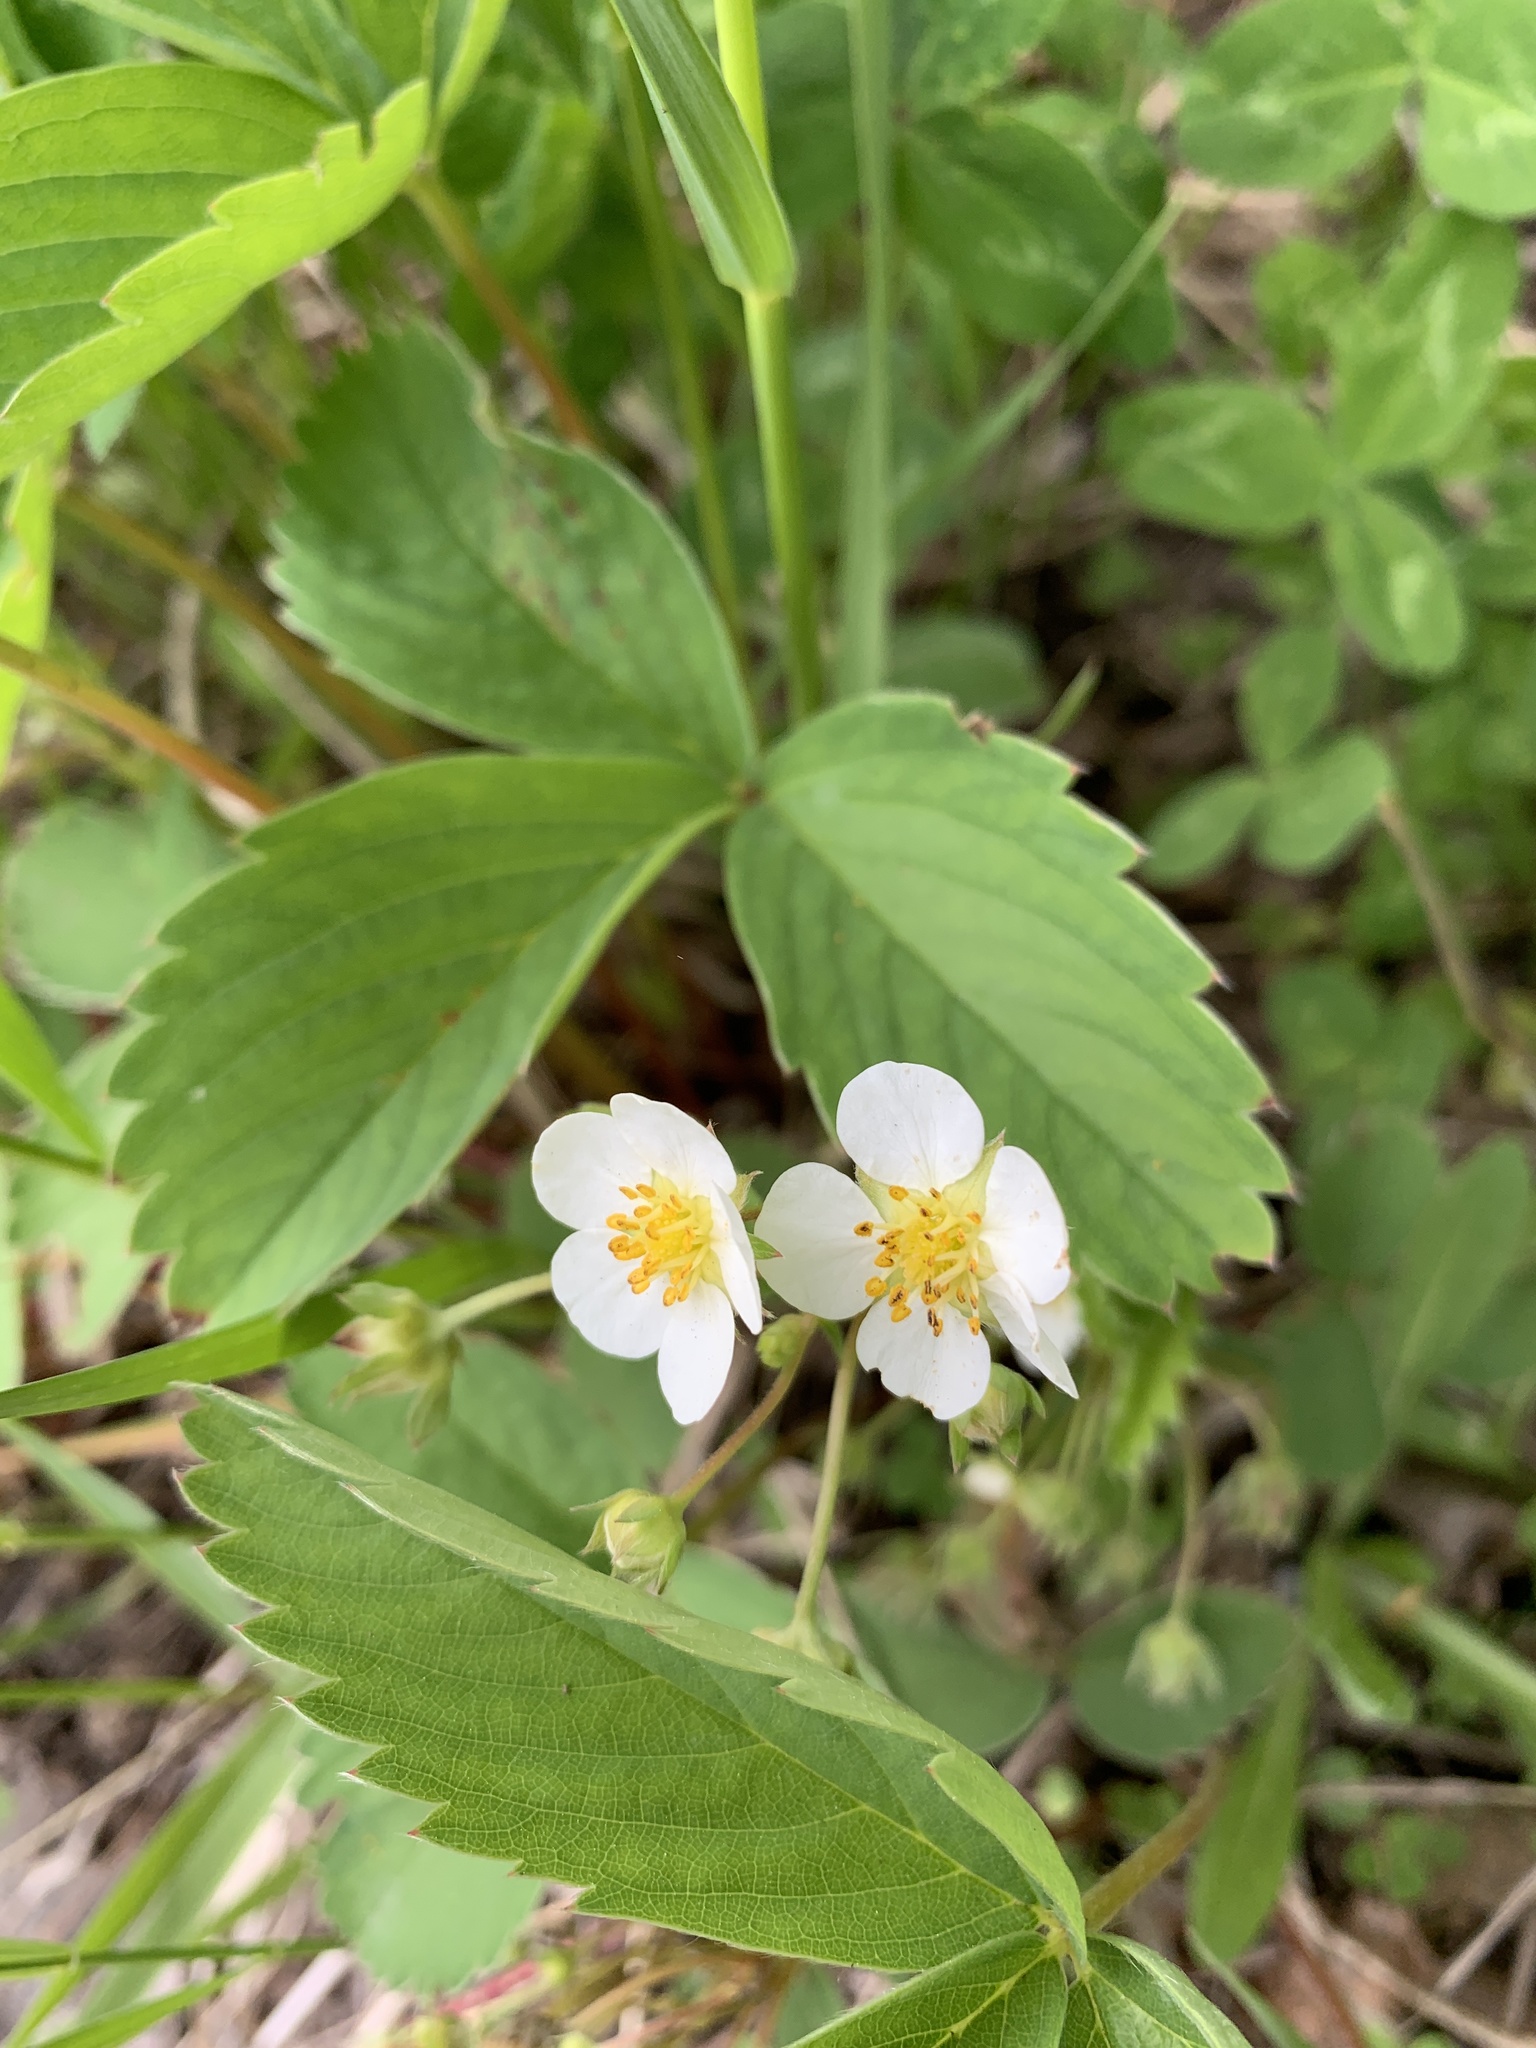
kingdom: Plantae
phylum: Tracheophyta
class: Magnoliopsida
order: Rosales
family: Rosaceae
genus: Fragaria
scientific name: Fragaria virginiana
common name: Thickleaved wild strawberry
